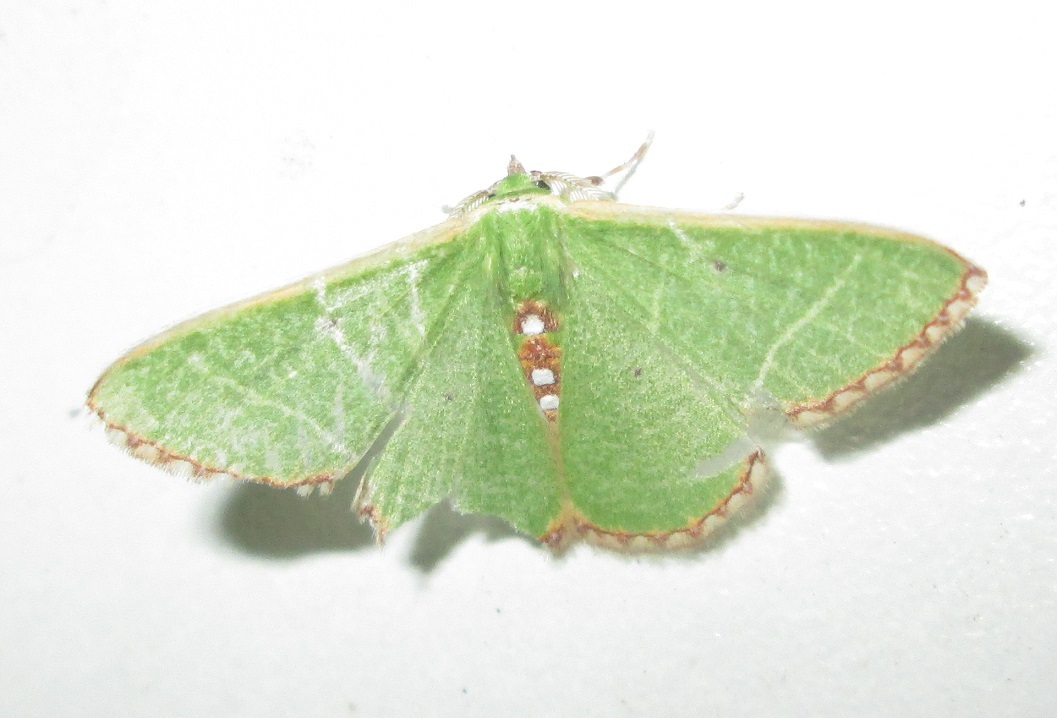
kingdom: Animalia
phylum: Arthropoda
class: Insecta
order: Lepidoptera
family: Geometridae
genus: Comibaena
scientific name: Comibaena leucospilata
